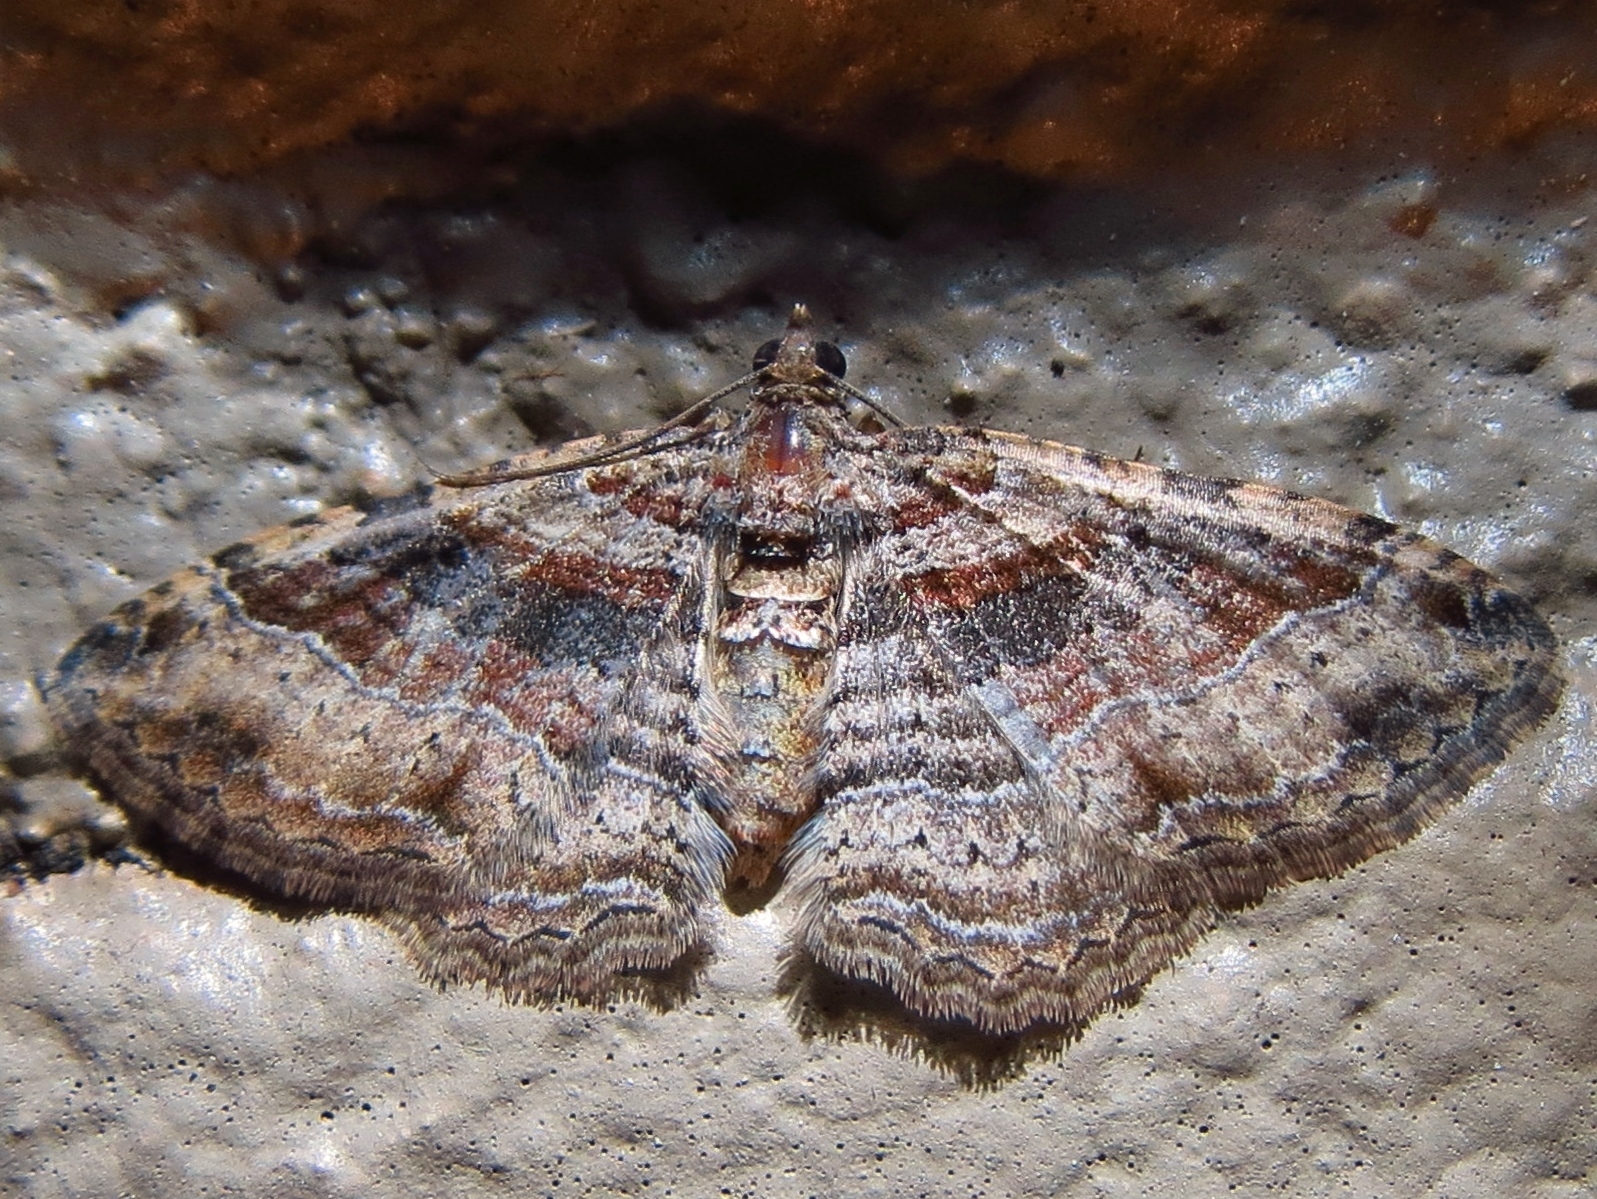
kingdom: Animalia
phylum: Arthropoda
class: Insecta
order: Lepidoptera
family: Geometridae
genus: Costaconvexa
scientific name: Costaconvexa centrostrigaria
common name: Bent-line carpet
